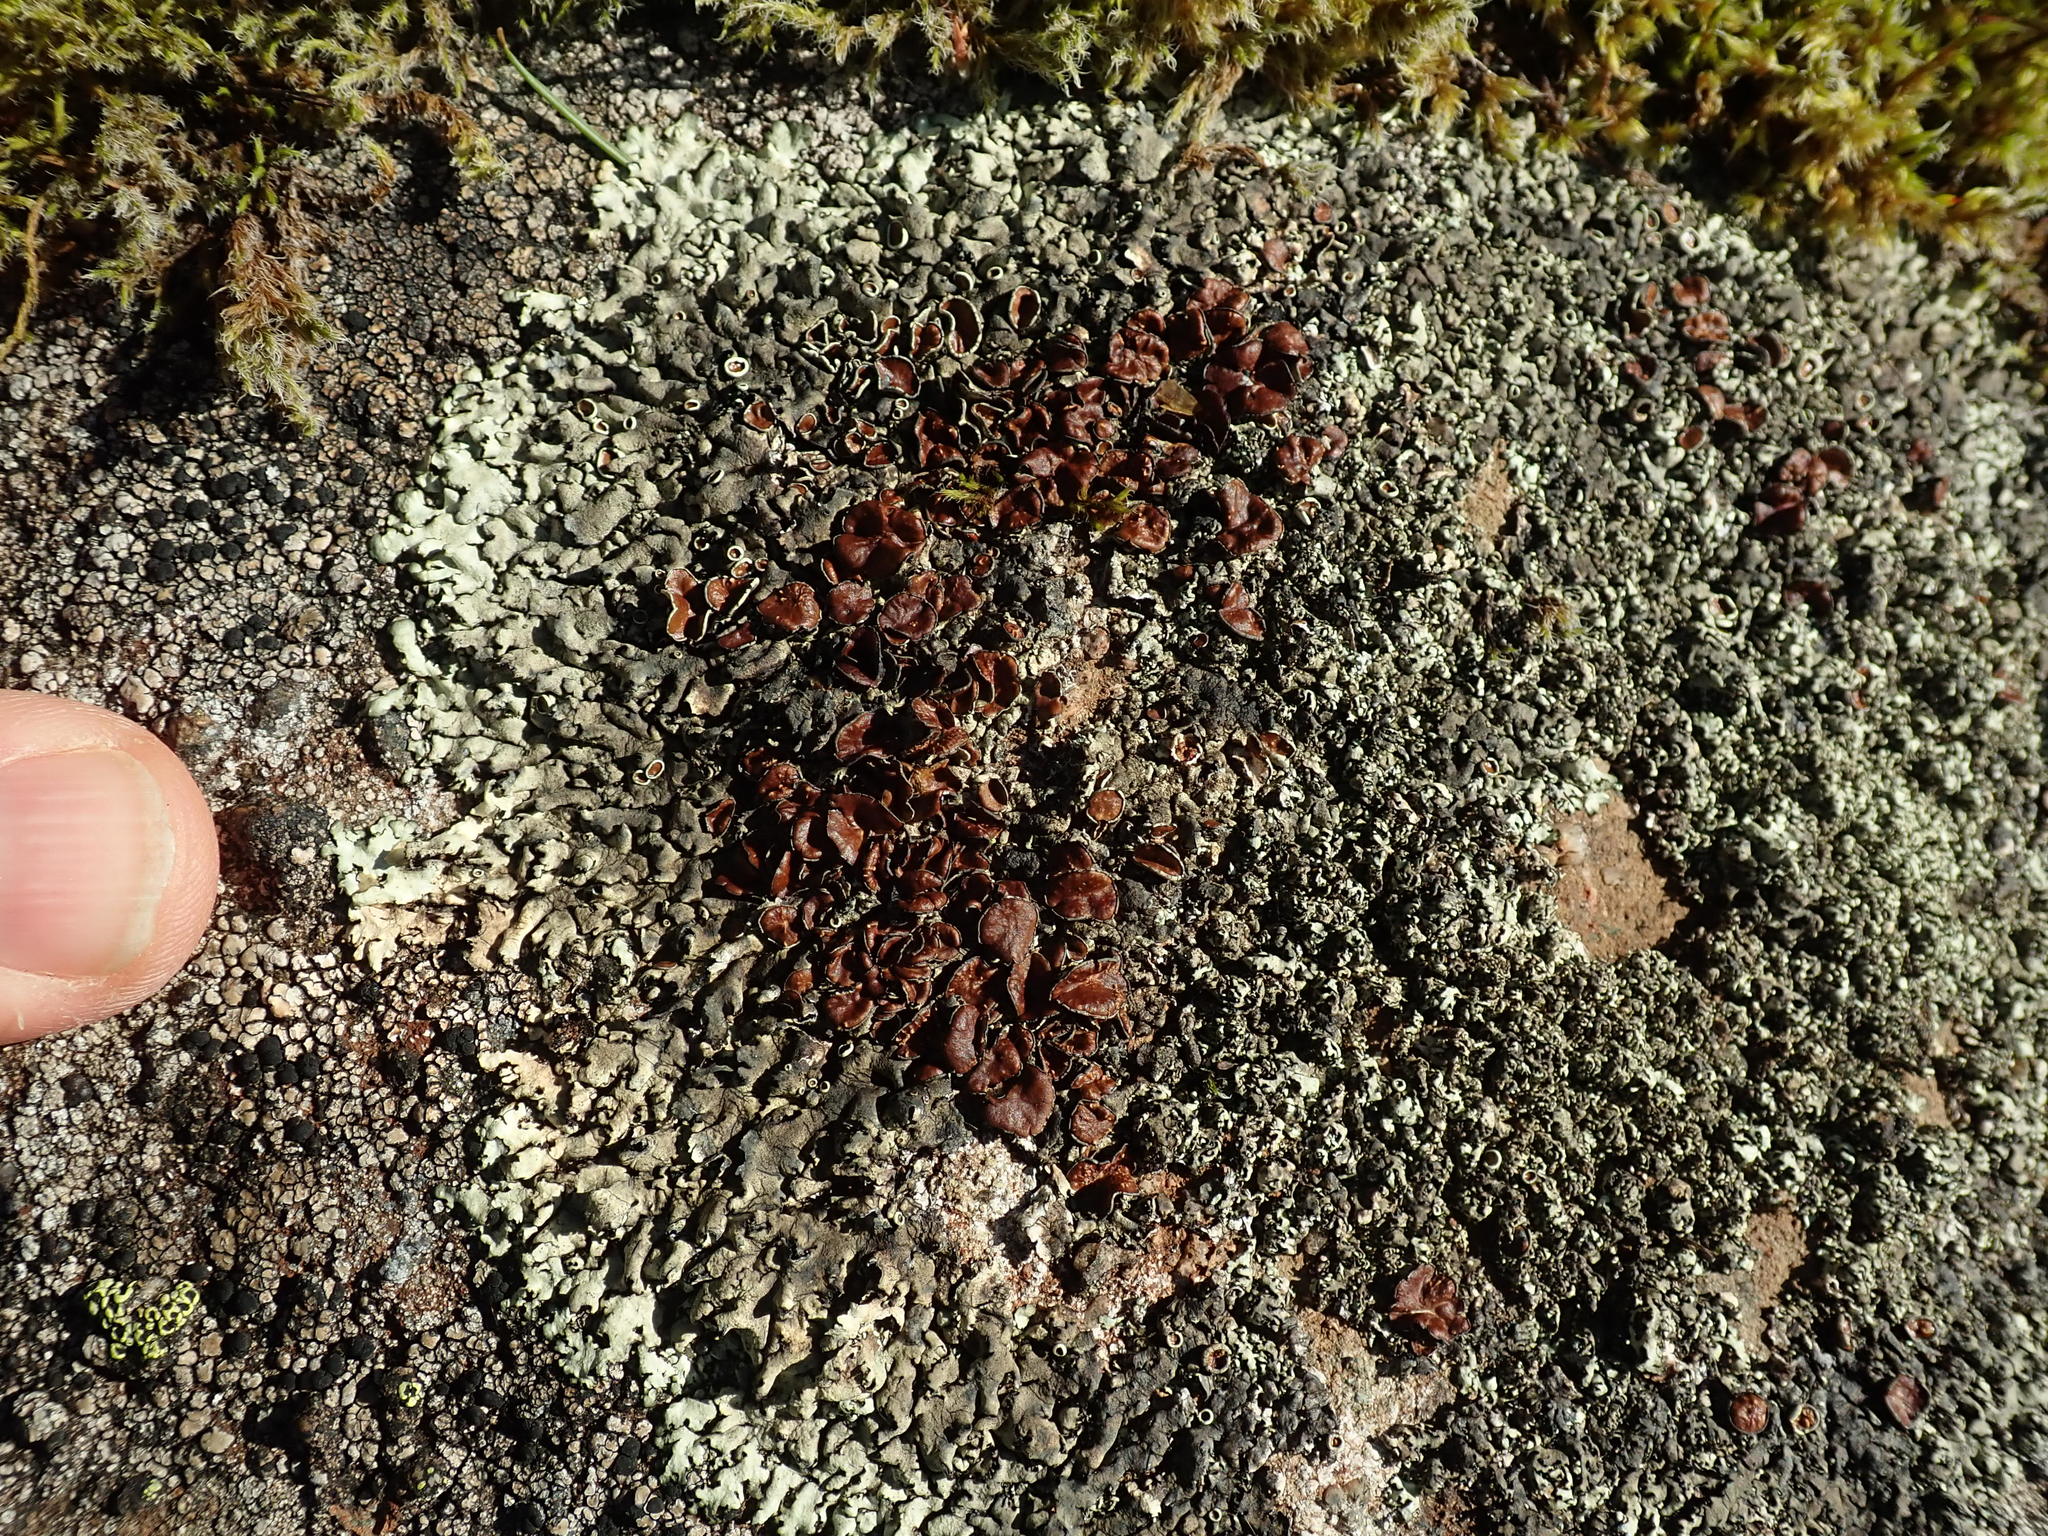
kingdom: Fungi
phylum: Ascomycota
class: Lecanoromycetes
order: Lecanorales
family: Parmeliaceae
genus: Xanthoparmelia
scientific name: Xanthoparmelia cumberlandia
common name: Cumberland rock shield
